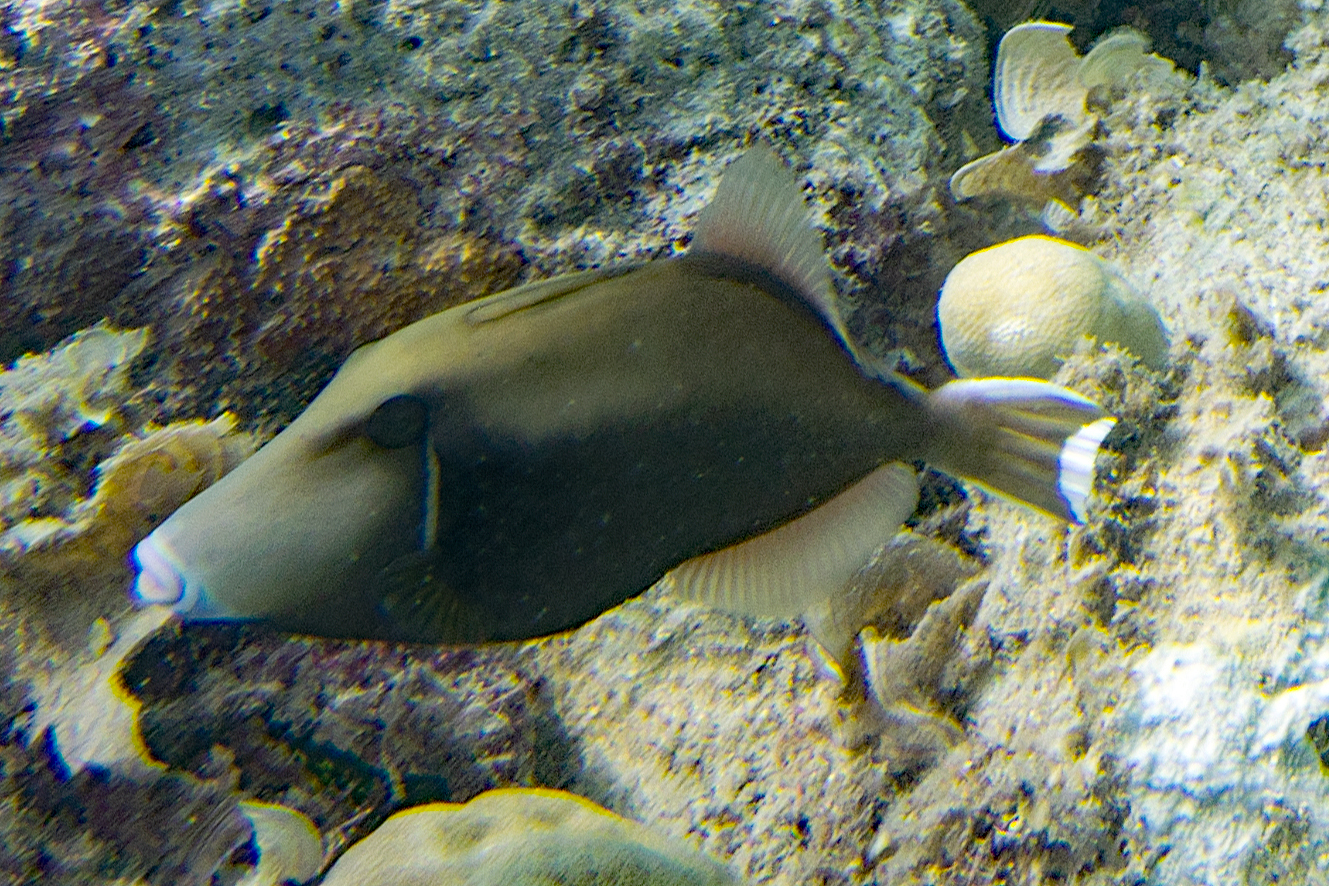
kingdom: Animalia
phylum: Chordata
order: Tetraodontiformes
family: Balistidae
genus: Sufflamen
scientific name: Sufflamen chrysopterum
